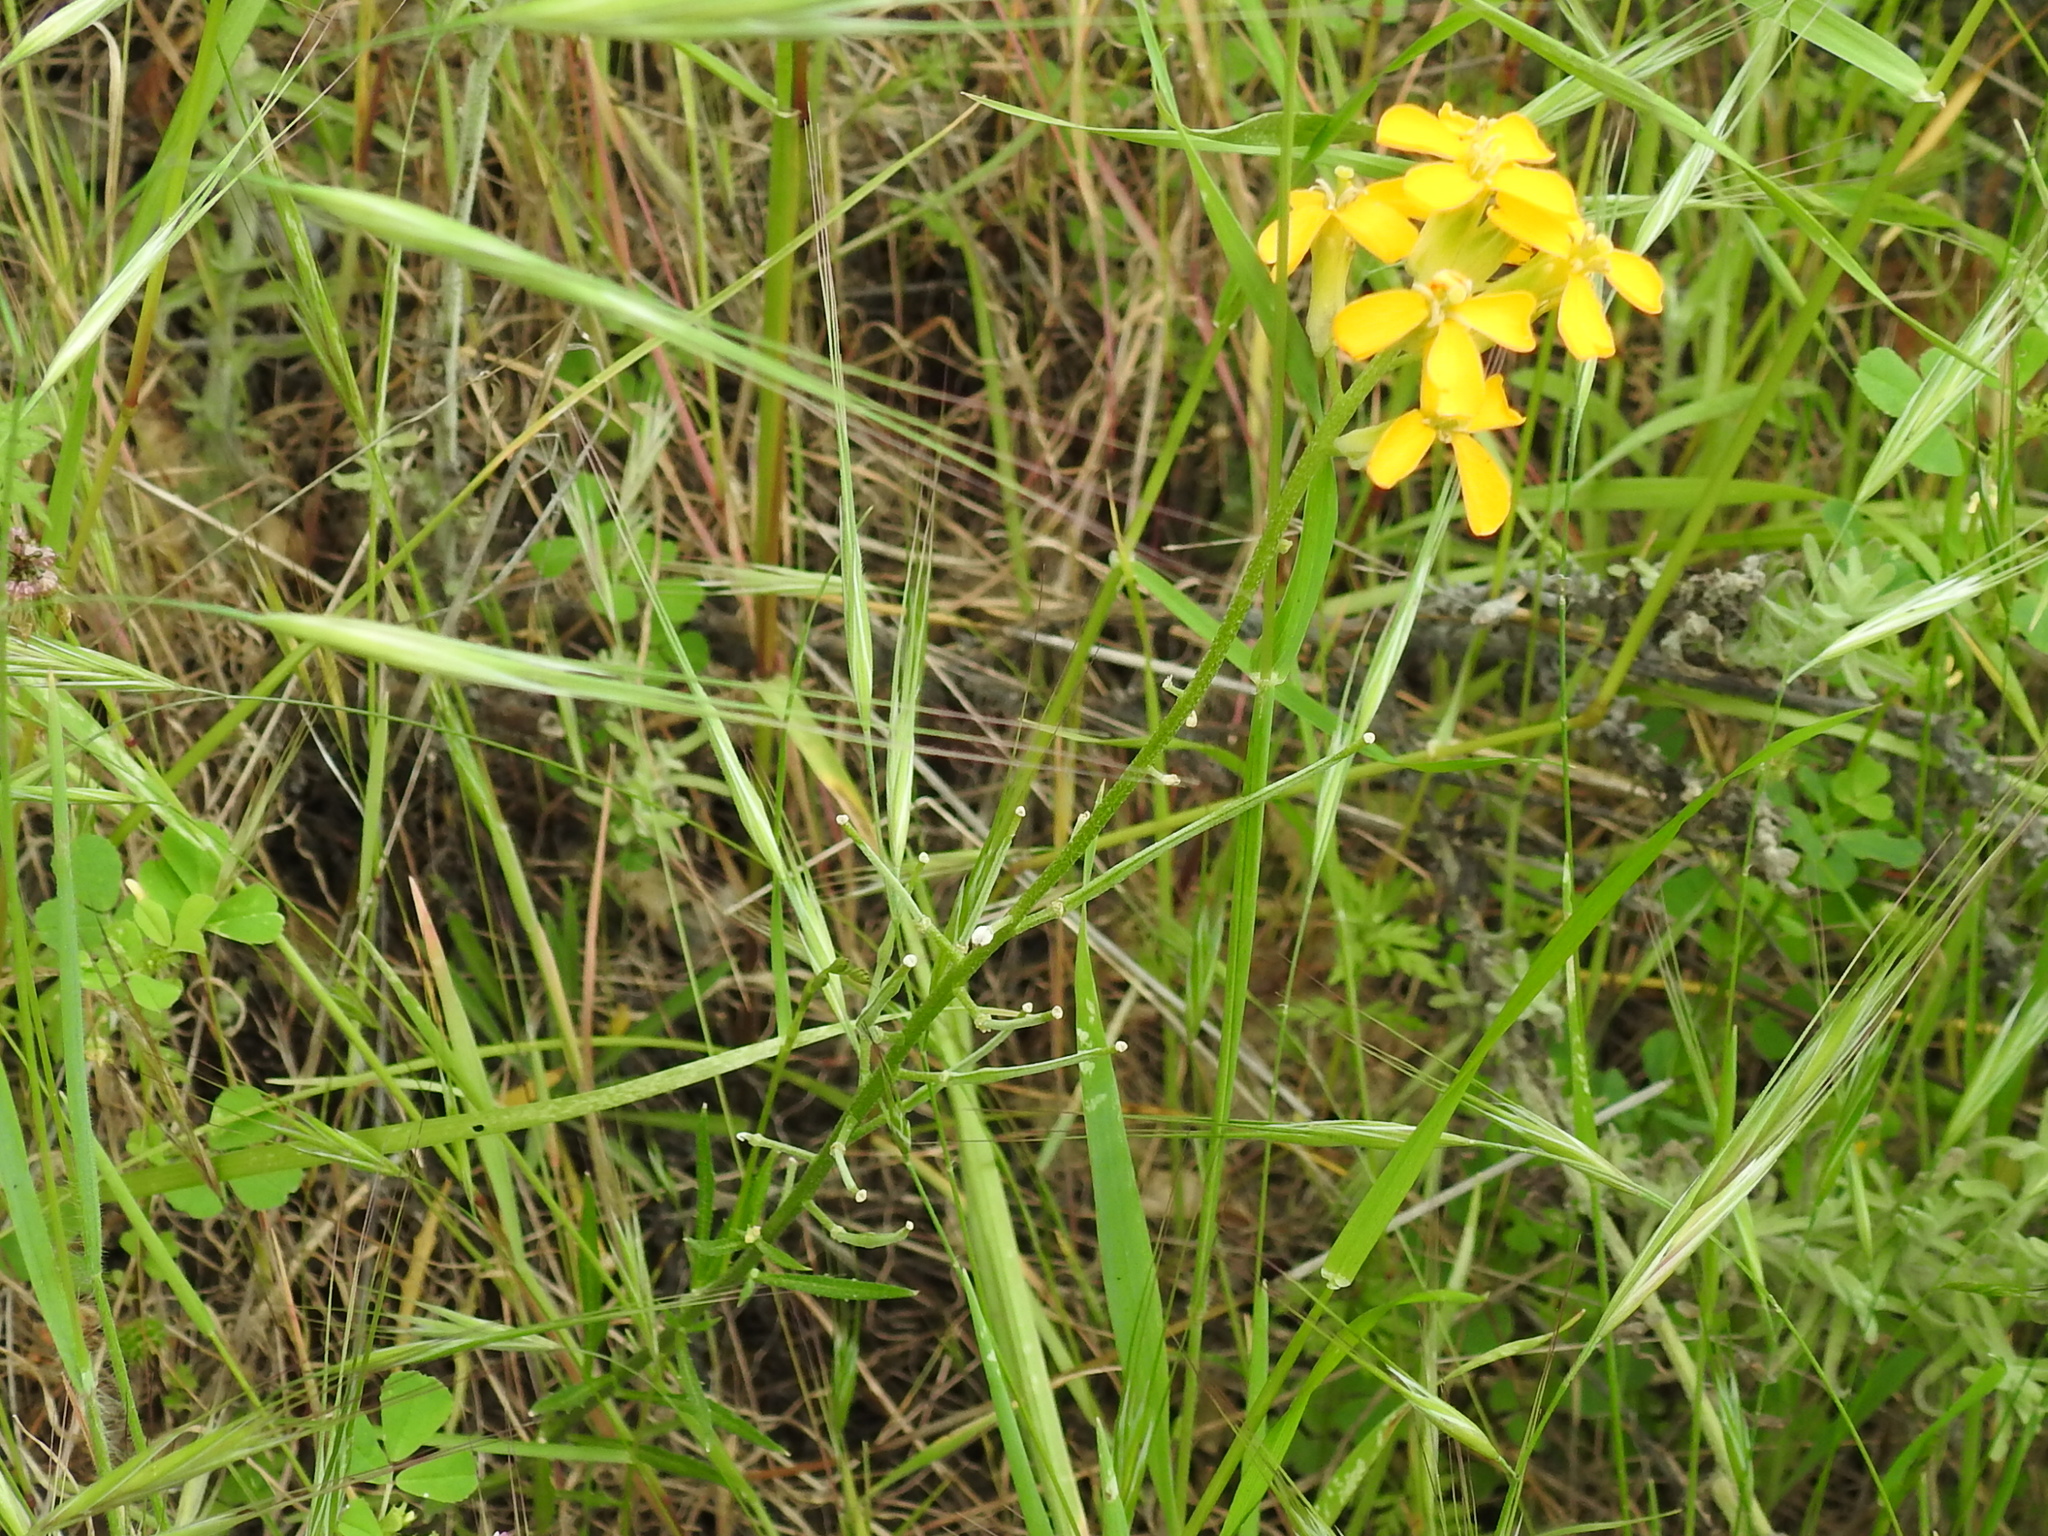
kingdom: Plantae
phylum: Tracheophyta
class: Magnoliopsida
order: Brassicales
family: Brassicaceae
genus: Erysimum
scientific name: Erysimum capitatum
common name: Western wallflower
